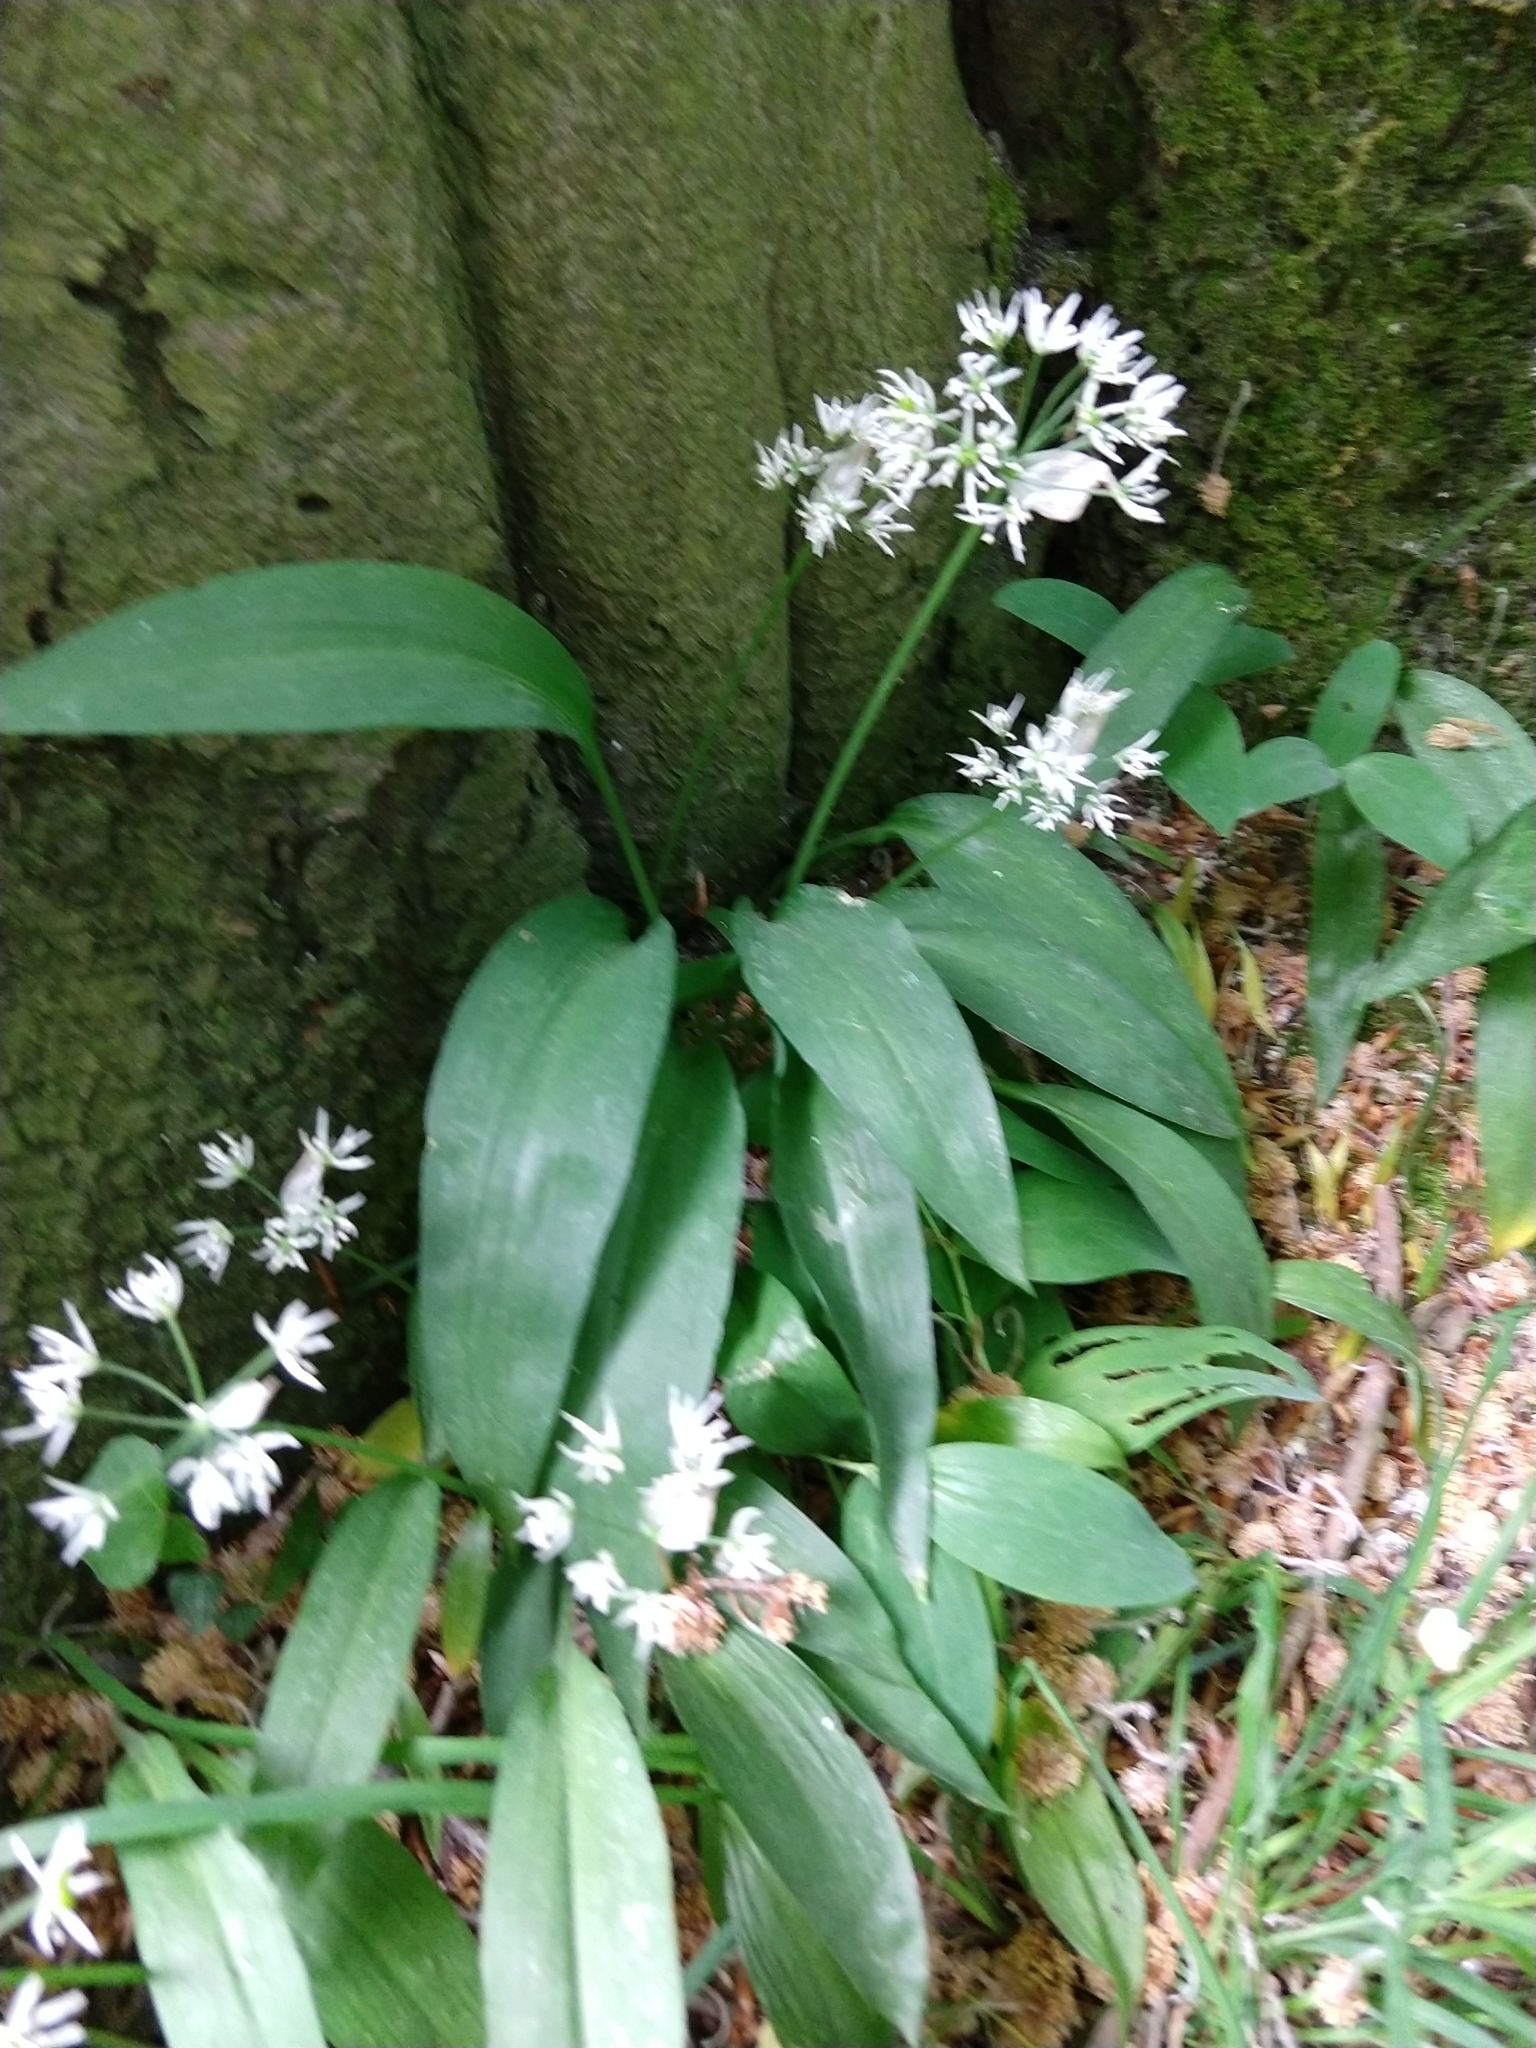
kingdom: Plantae
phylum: Tracheophyta
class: Liliopsida
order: Asparagales
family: Amaryllidaceae
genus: Allium
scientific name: Allium ursinum
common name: Ramsons
